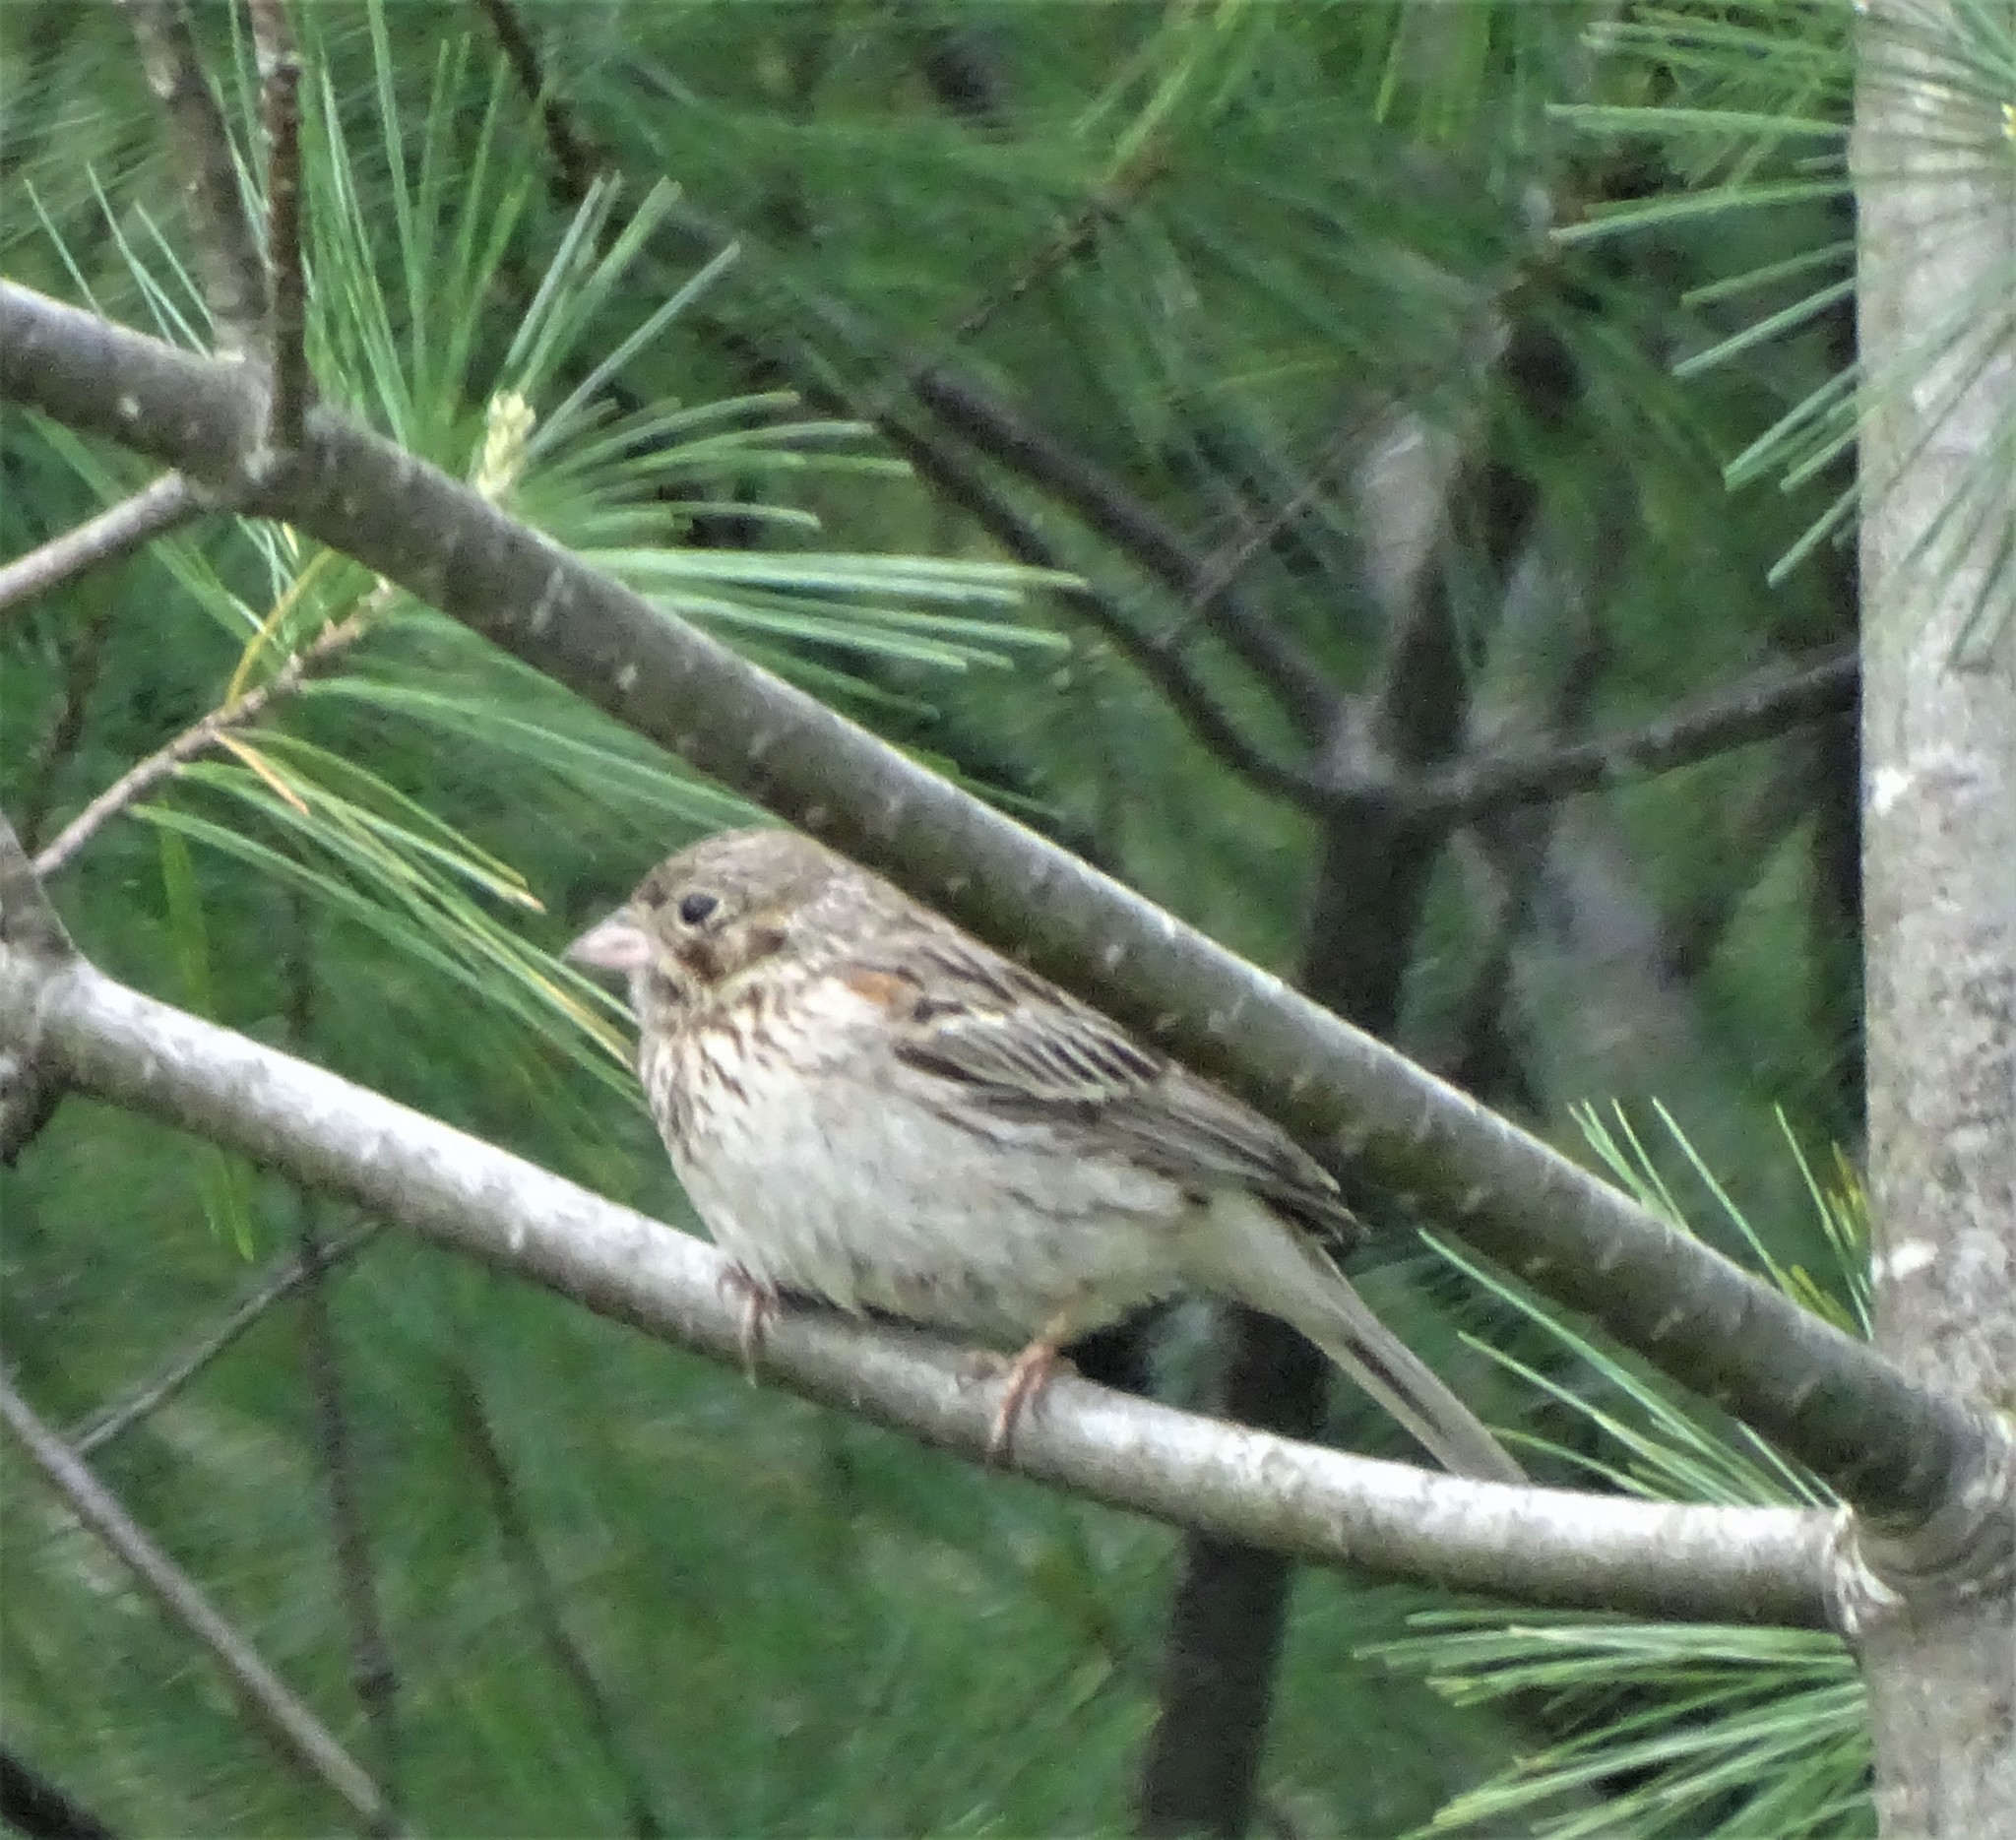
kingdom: Animalia
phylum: Chordata
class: Aves
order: Passeriformes
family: Passerellidae
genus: Pooecetes
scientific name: Pooecetes gramineus
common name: Vesper sparrow
